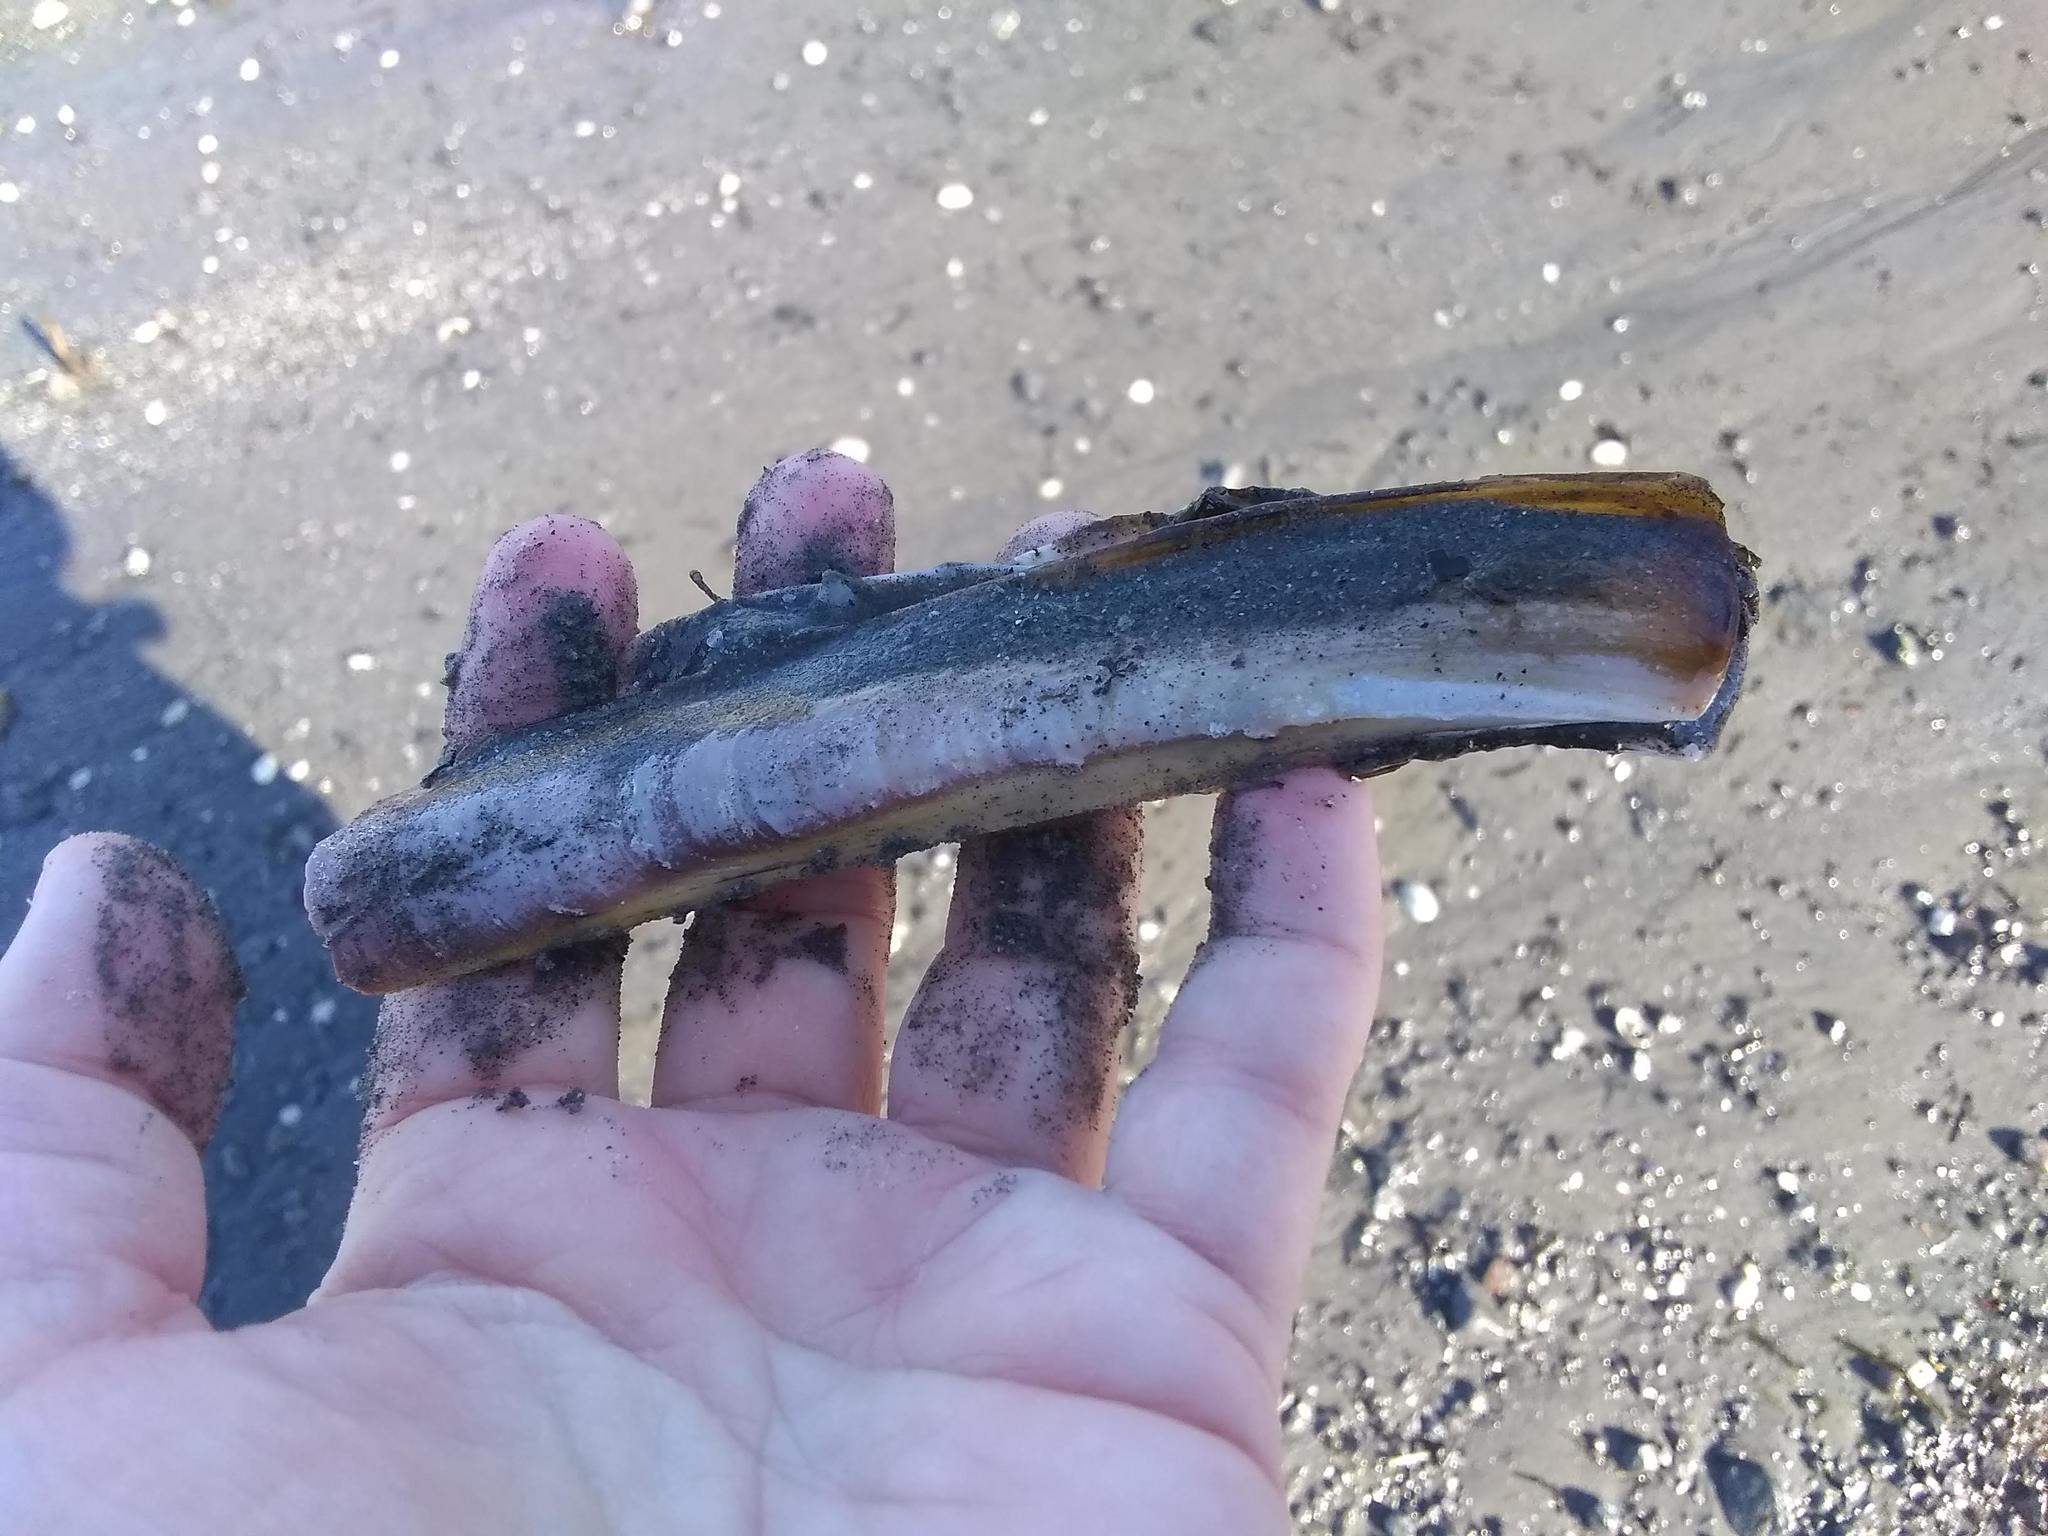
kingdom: Animalia
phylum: Mollusca
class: Bivalvia
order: Adapedonta
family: Pharidae
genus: Ensis
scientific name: Ensis leei
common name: American jack knife clam
